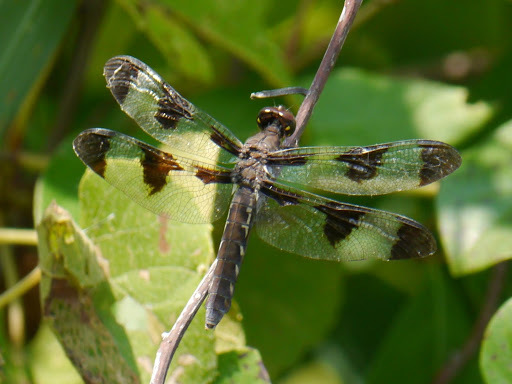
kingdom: Animalia
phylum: Arthropoda
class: Insecta
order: Odonata
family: Libellulidae
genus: Plathemis
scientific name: Plathemis lydia
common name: Common whitetail
